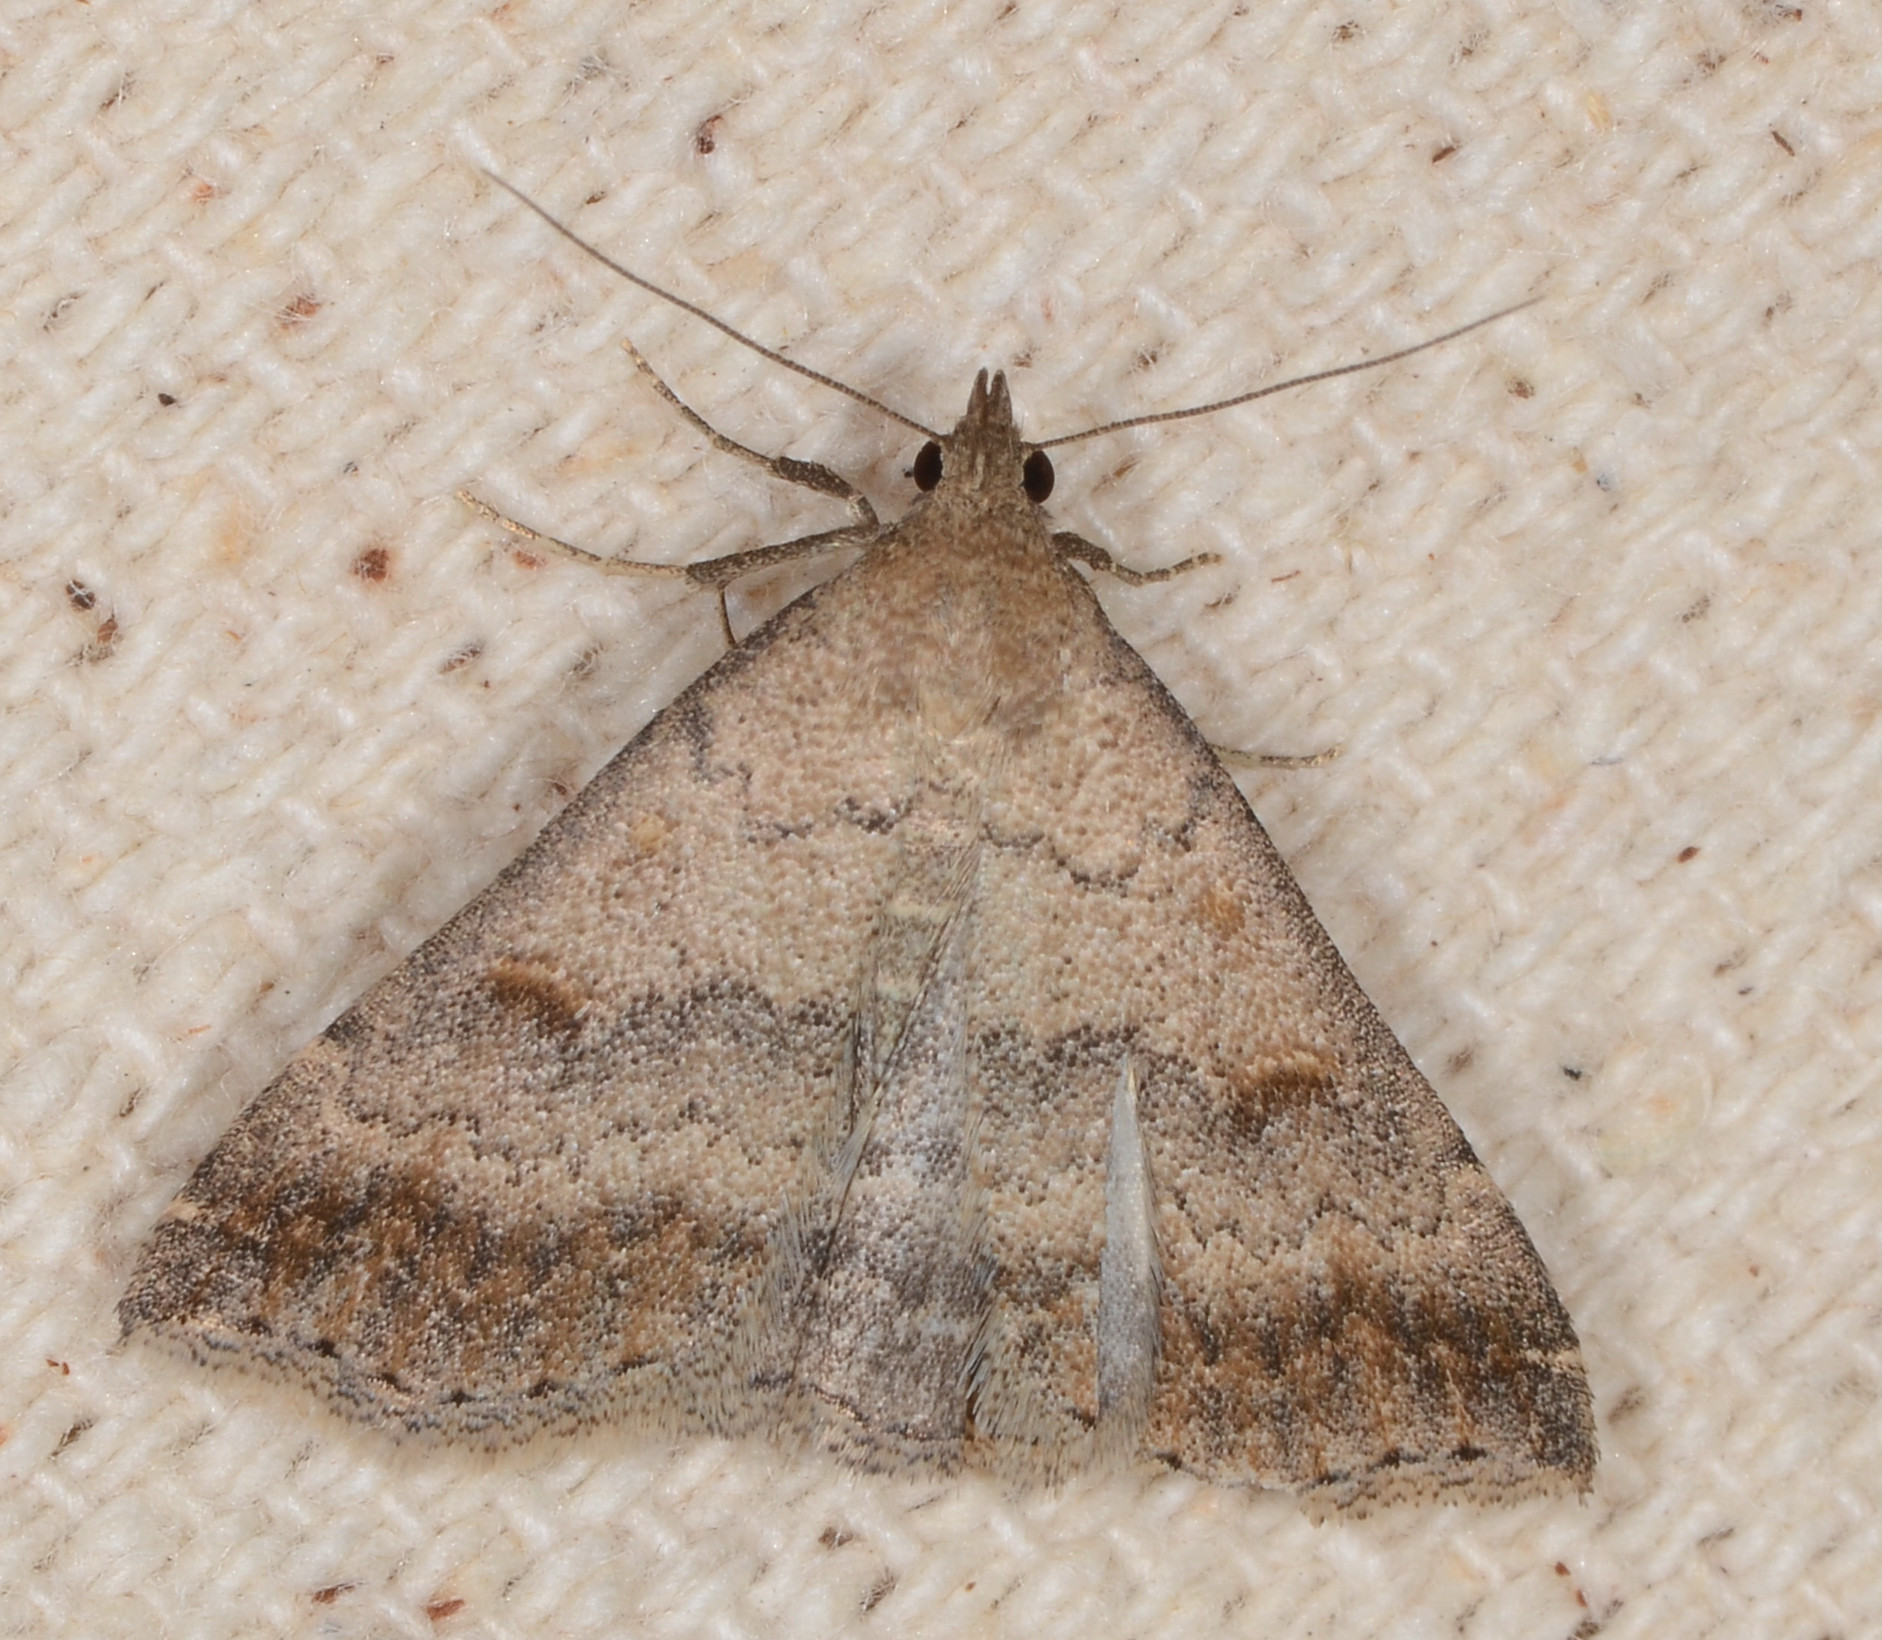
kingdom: Animalia
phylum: Arthropoda
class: Insecta
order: Lepidoptera
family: Erebidae
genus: Tetanolita
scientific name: Tetanolita palligera
